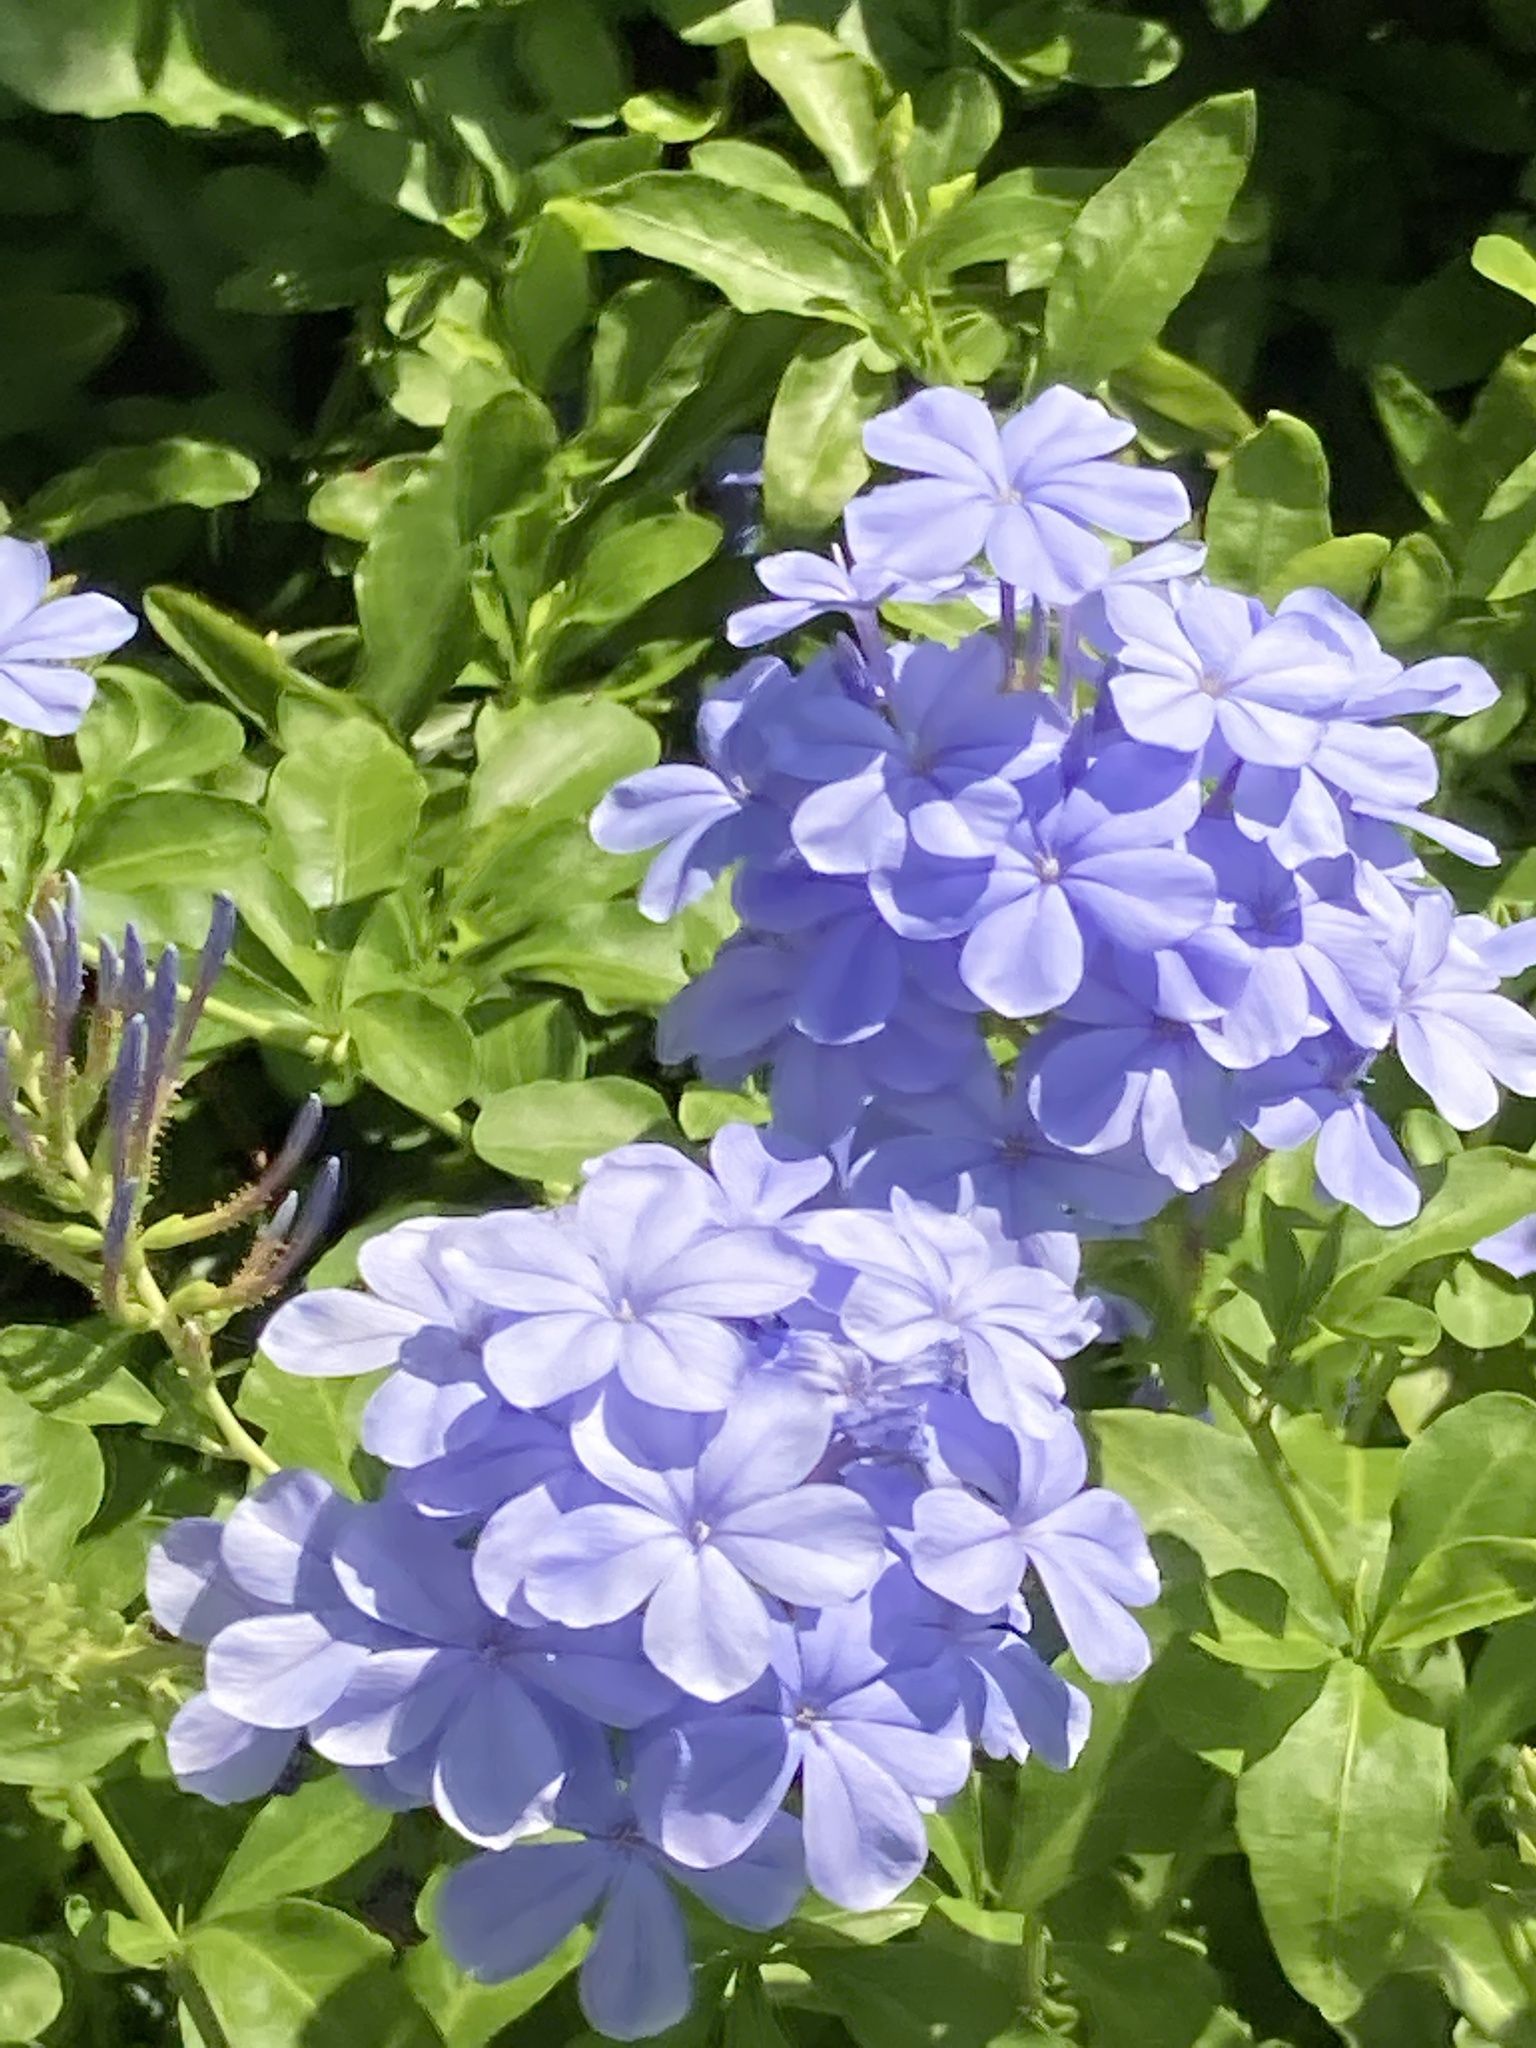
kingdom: Plantae
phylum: Tracheophyta
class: Magnoliopsida
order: Caryophyllales
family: Plumbaginaceae
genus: Plumbago
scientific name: Plumbago auriculata
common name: Cape leadwort
